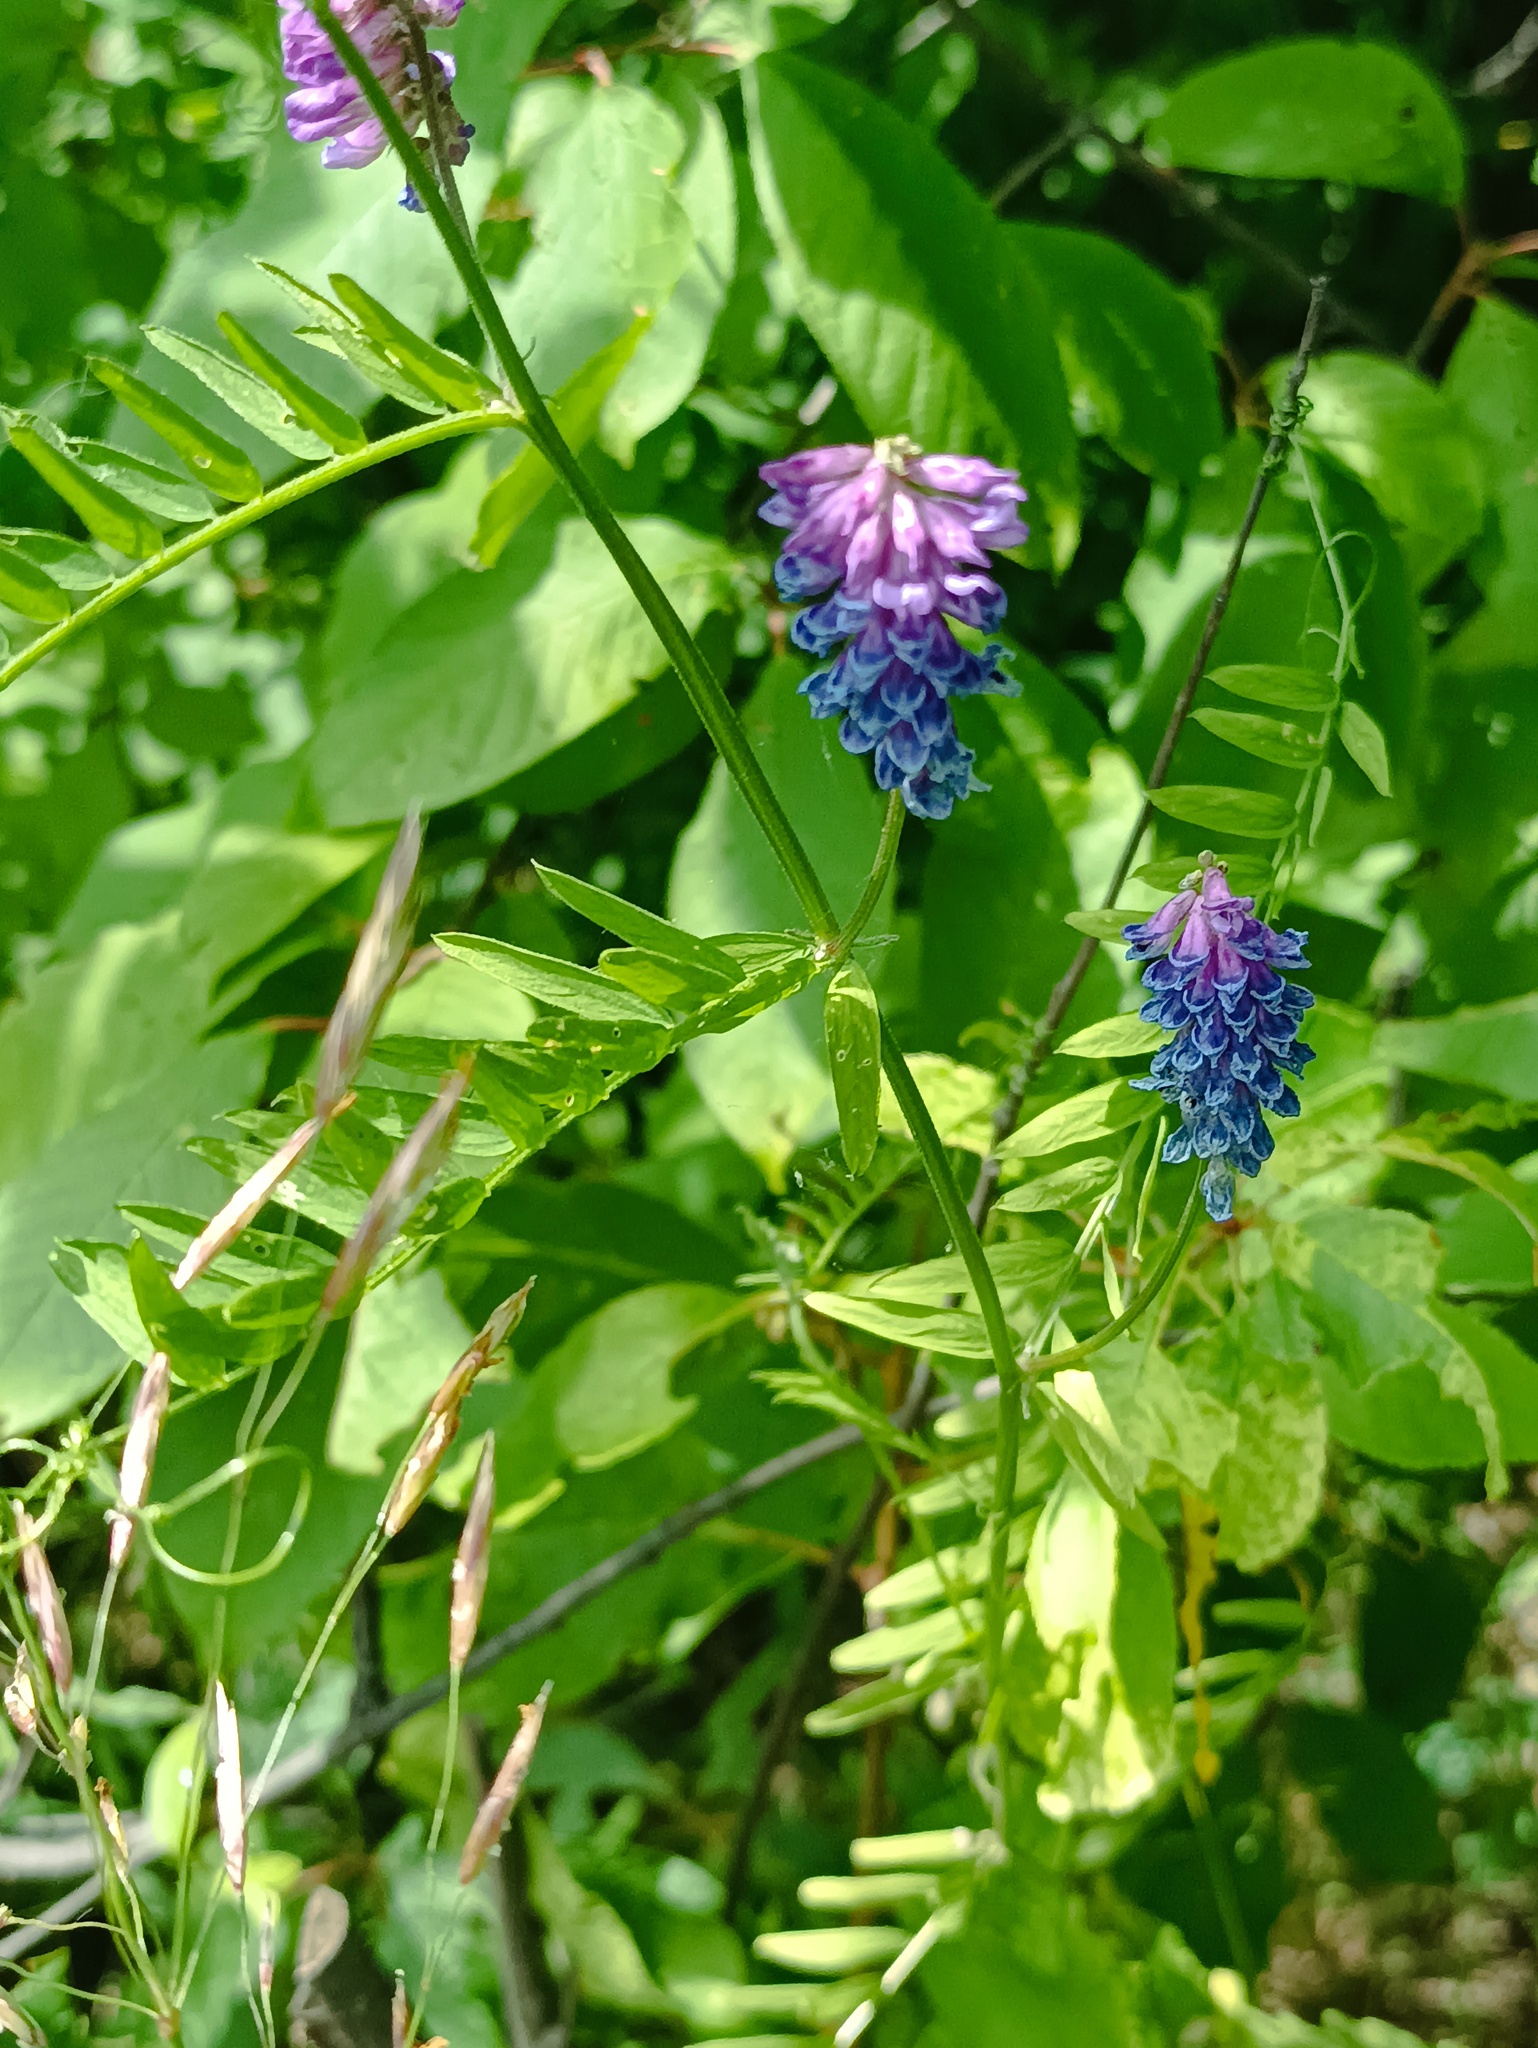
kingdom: Plantae
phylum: Tracheophyta
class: Magnoliopsida
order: Fabales
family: Fabaceae
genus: Vicia
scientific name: Vicia cracca
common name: Bird vetch
